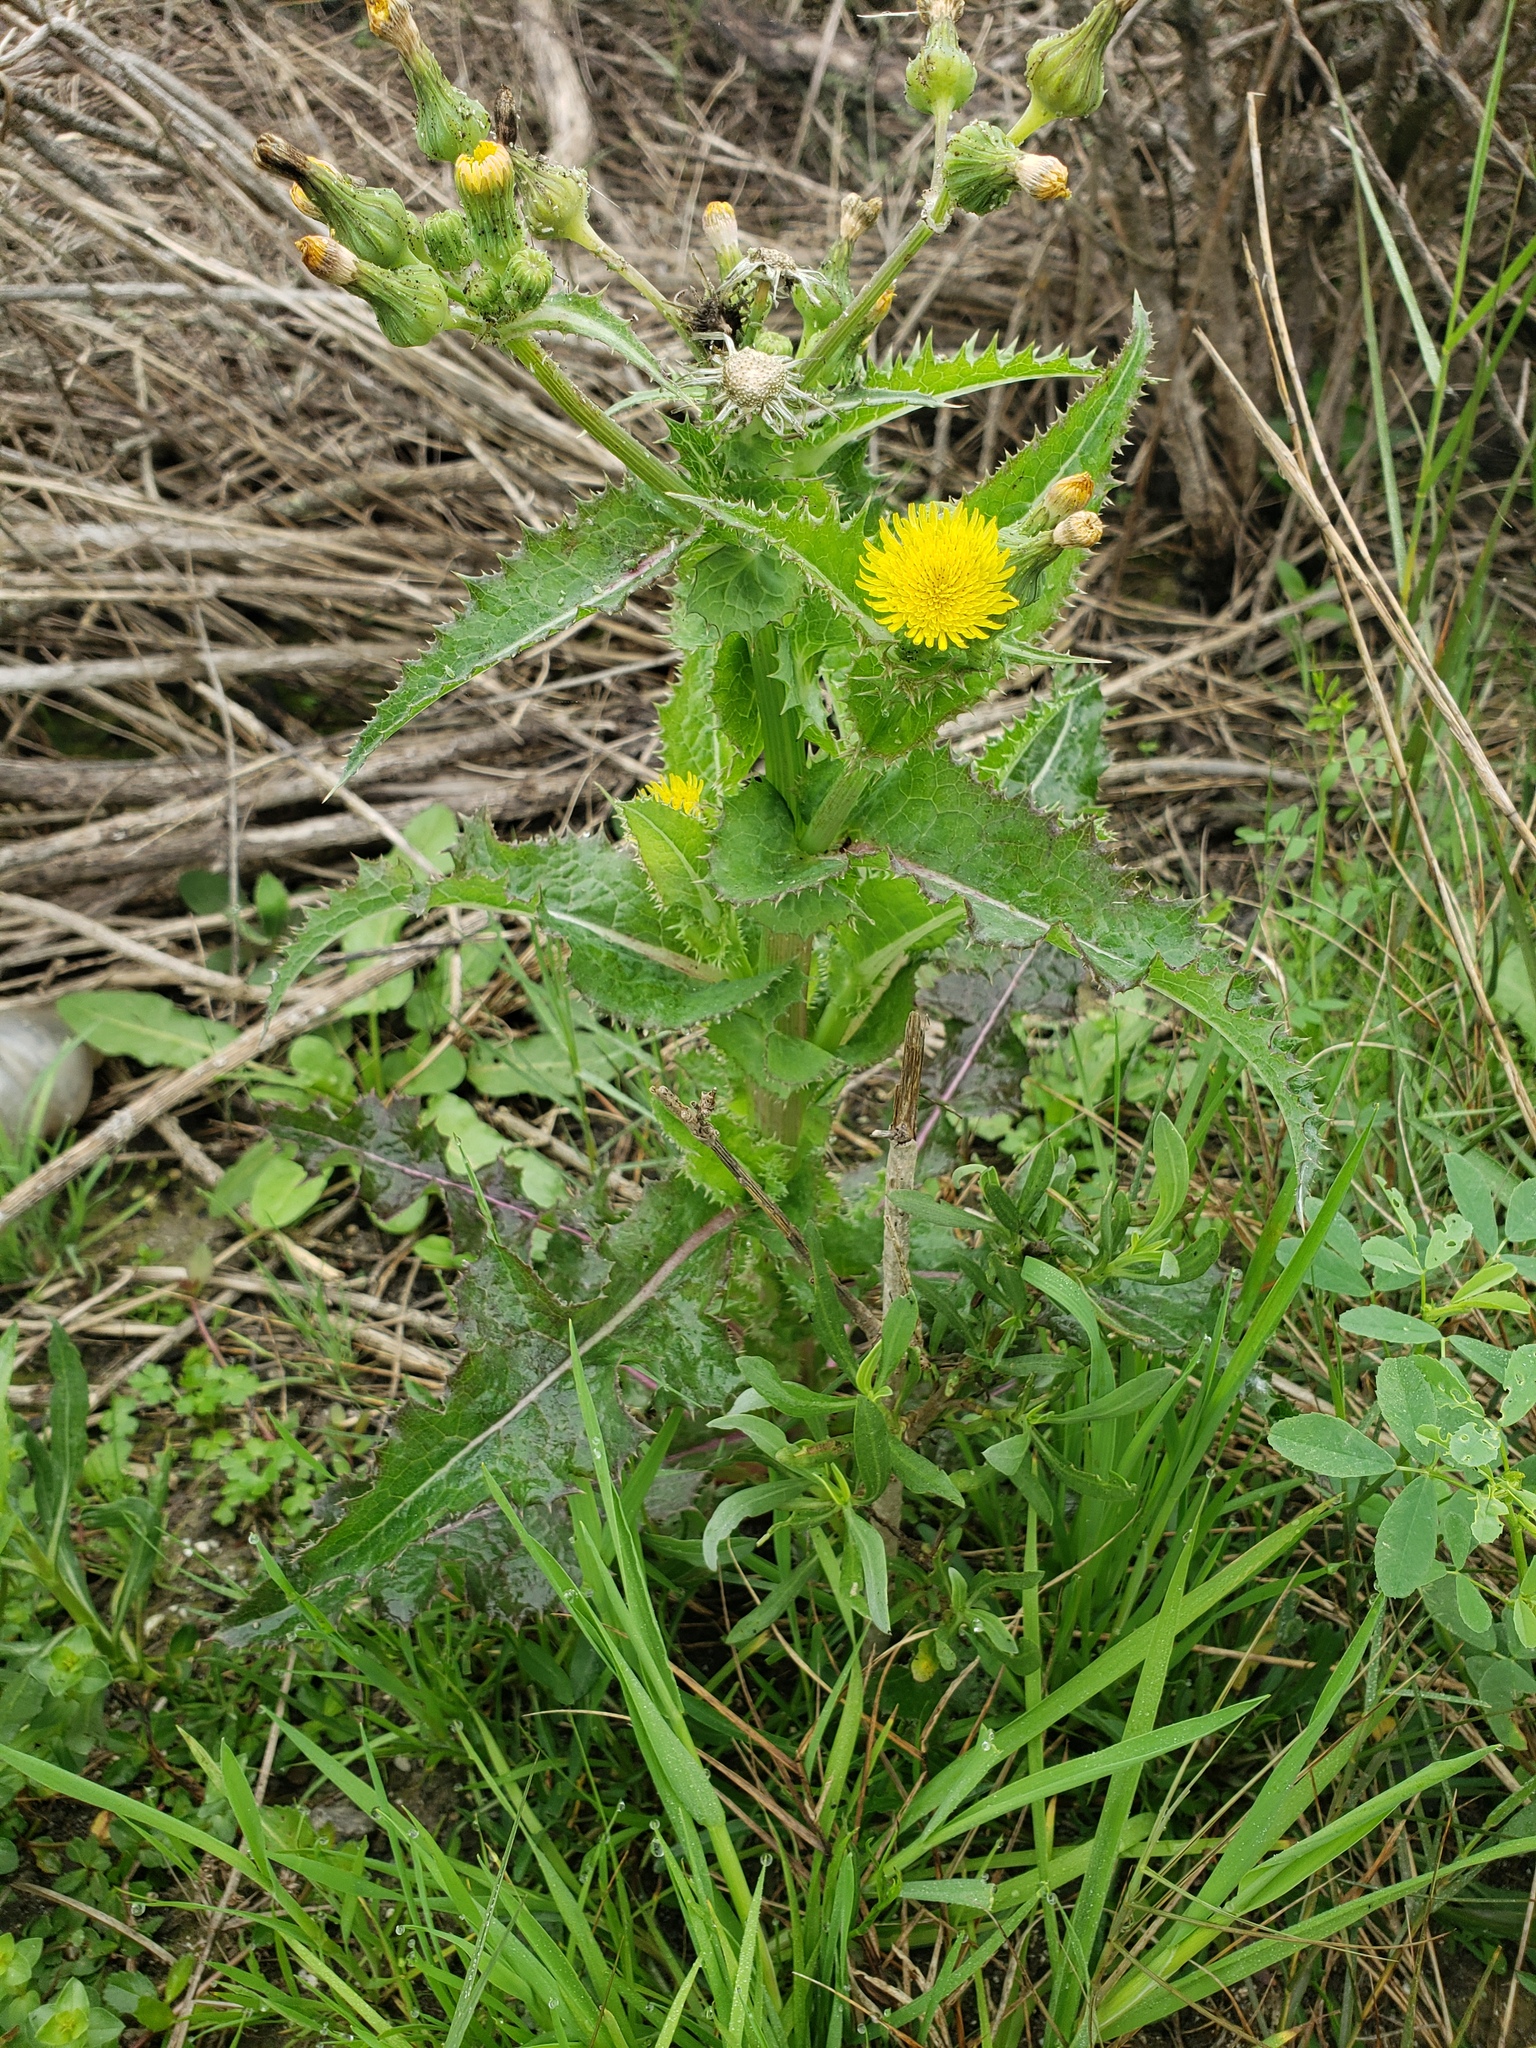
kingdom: Plantae
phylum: Tracheophyta
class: Magnoliopsida
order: Asterales
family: Asteraceae
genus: Sonchus
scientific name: Sonchus asper
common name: Prickly sow-thistle
